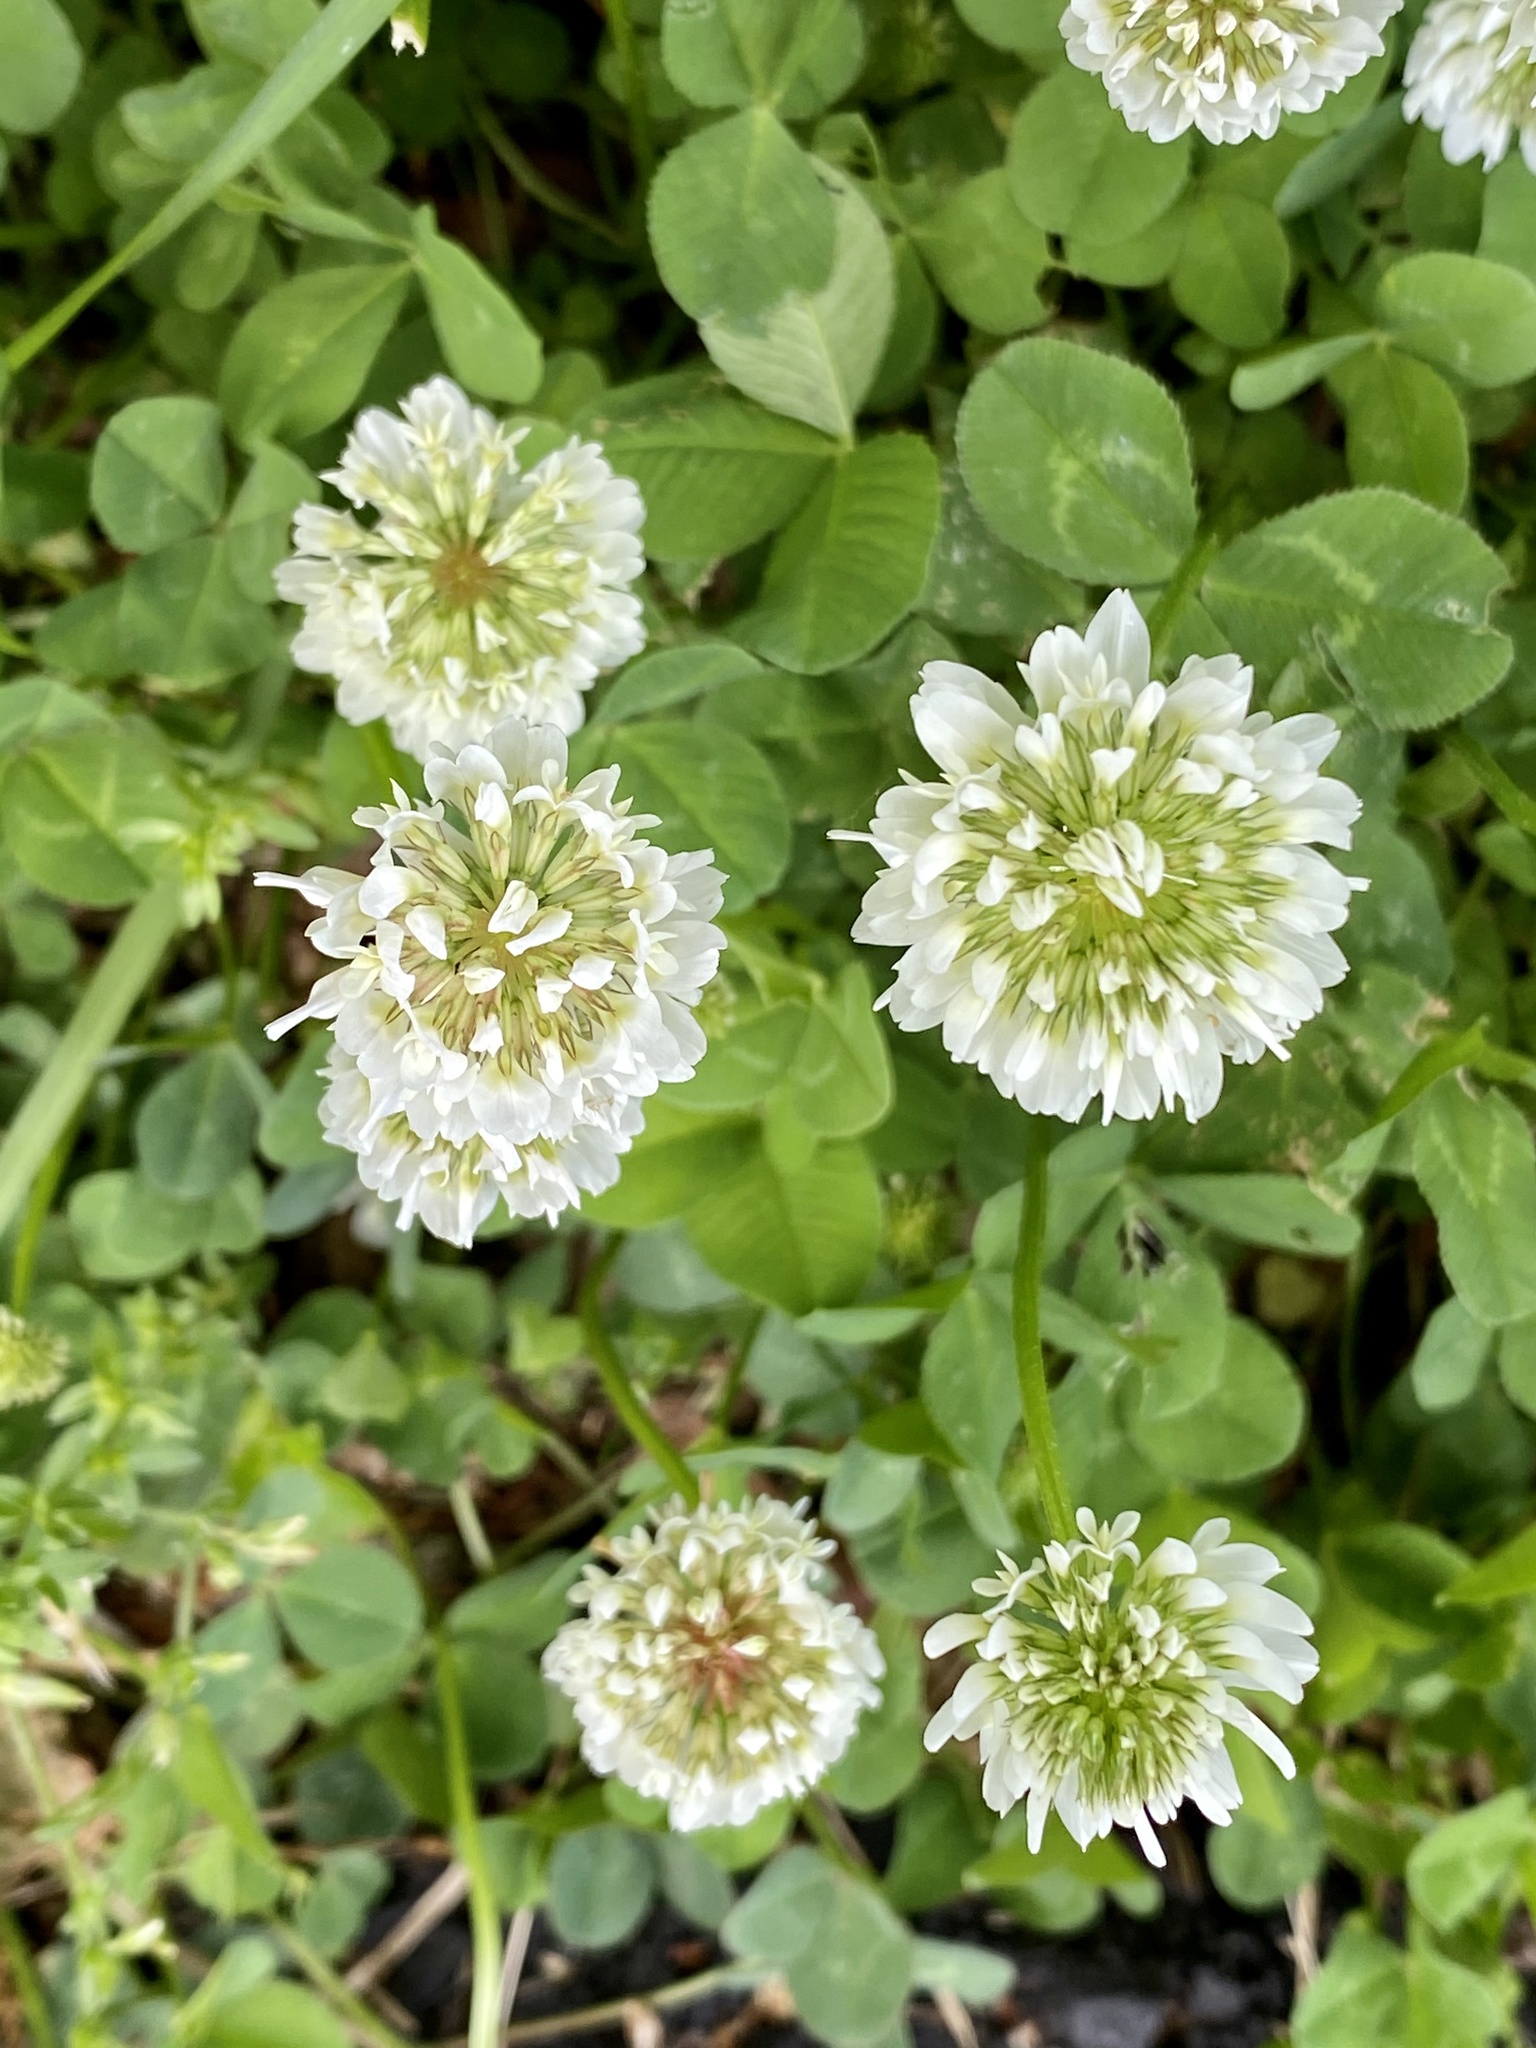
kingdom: Plantae
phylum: Tracheophyta
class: Magnoliopsida
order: Fabales
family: Fabaceae
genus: Trifolium
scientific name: Trifolium repens
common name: White clover
